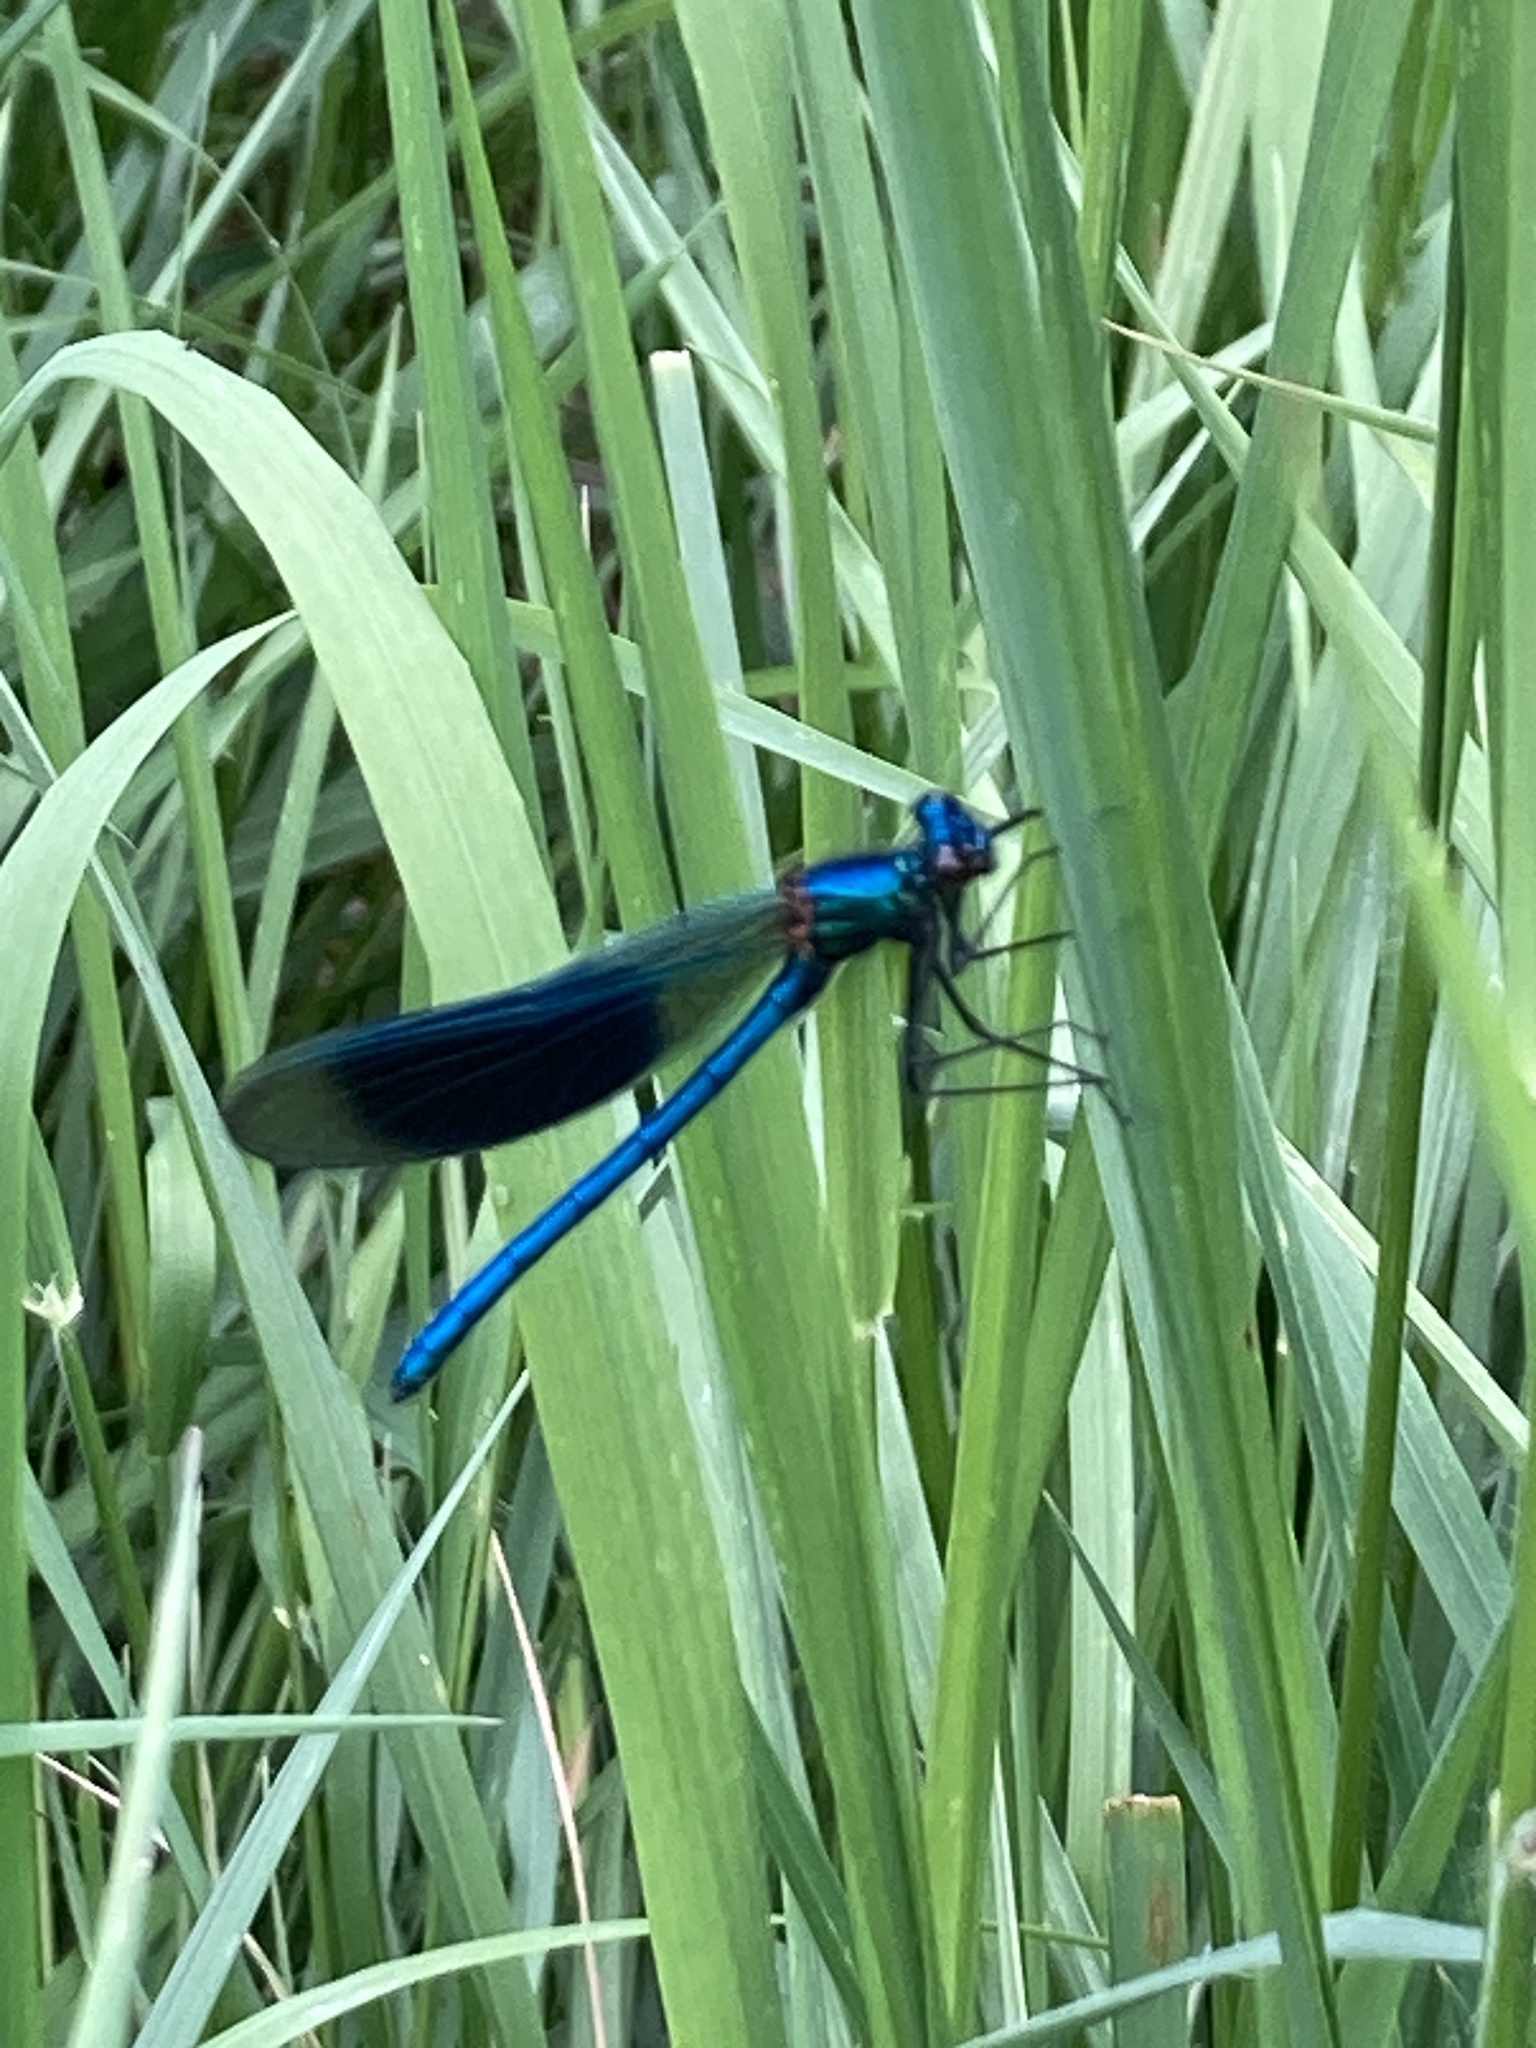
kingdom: Animalia
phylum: Arthropoda
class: Insecta
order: Odonata
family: Calopterygidae
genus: Calopteryx
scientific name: Calopteryx splendens
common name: Banded demoiselle
